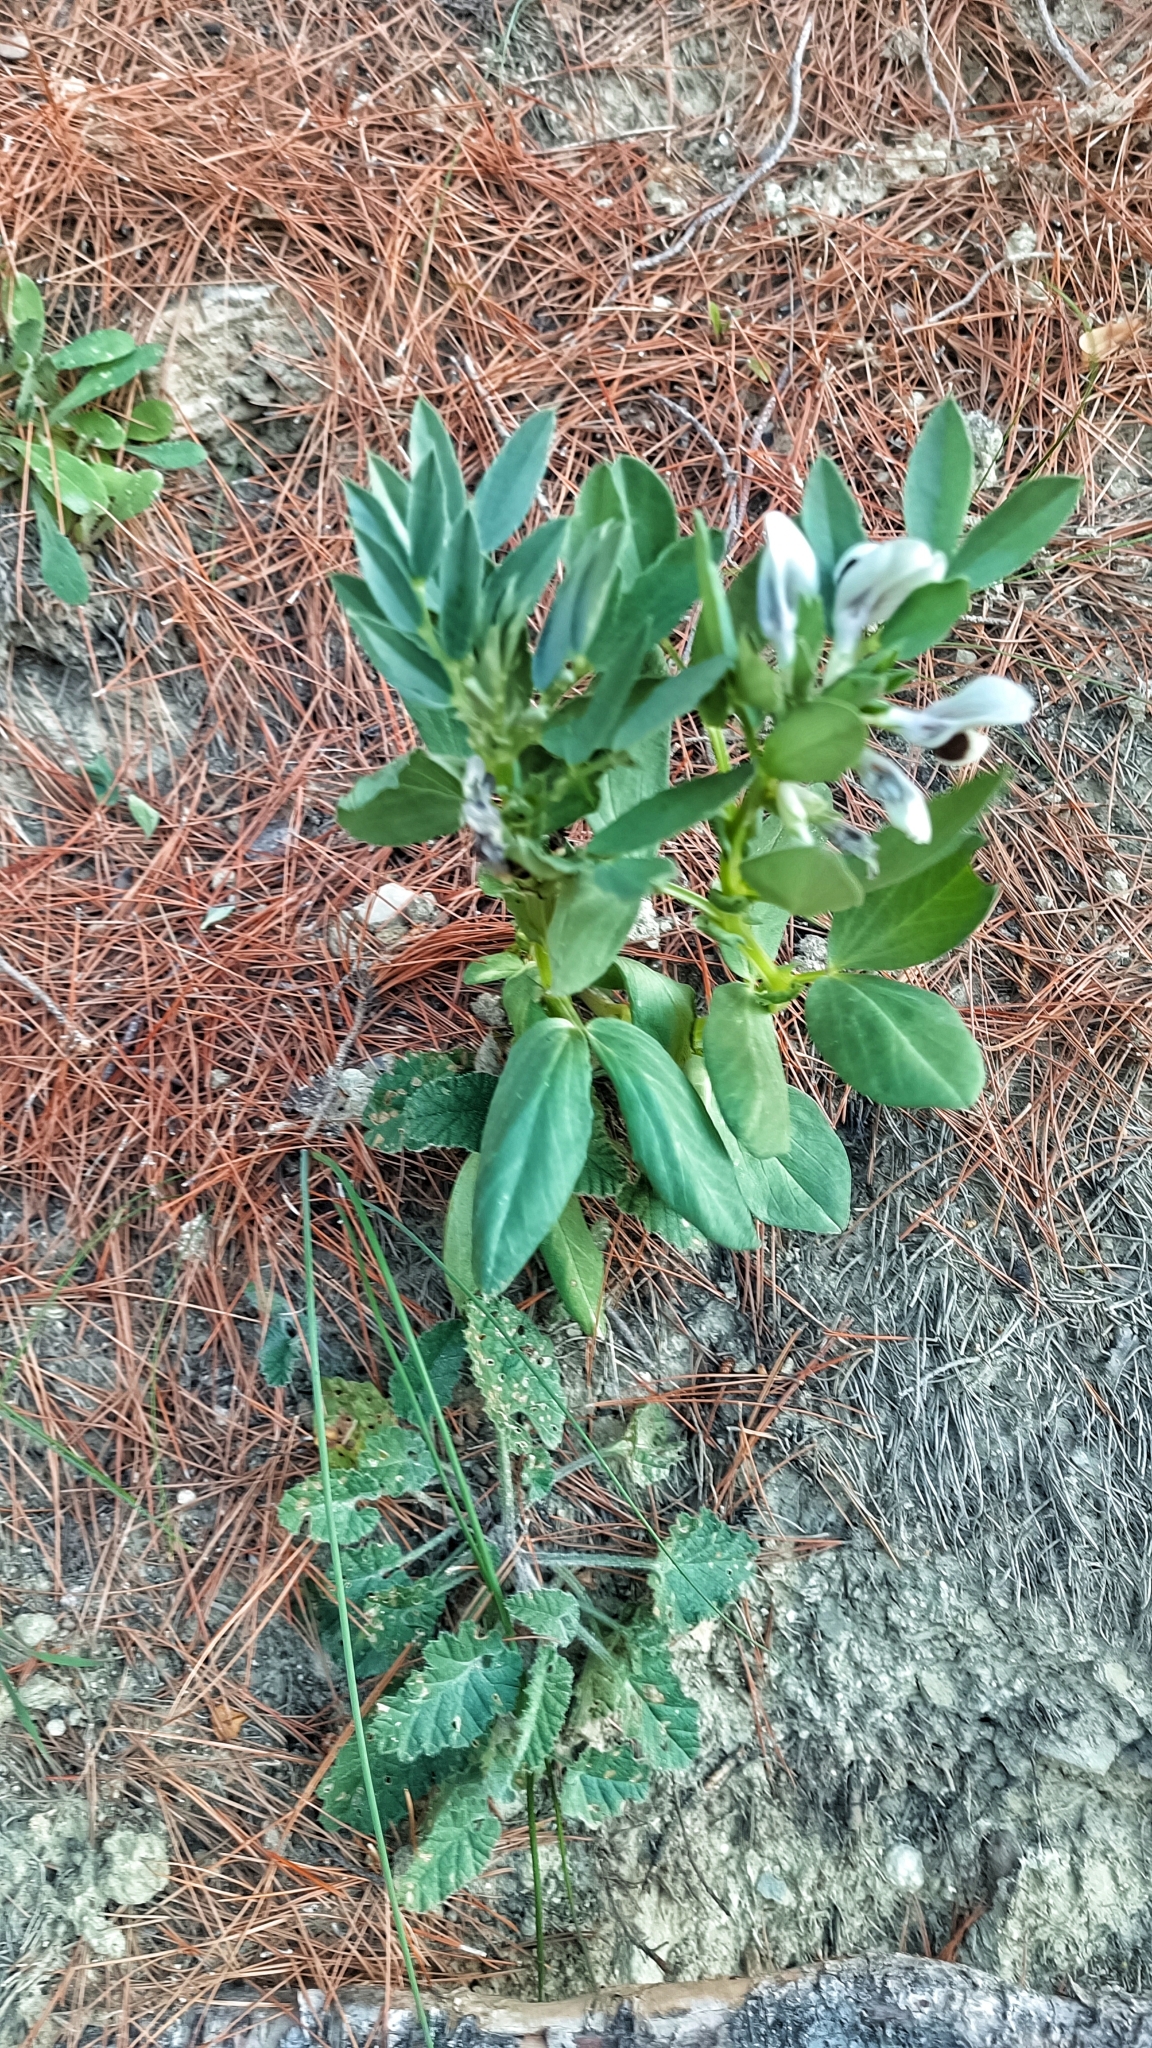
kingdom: Plantae
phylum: Tracheophyta
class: Magnoliopsida
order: Fabales
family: Fabaceae
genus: Vicia
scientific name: Vicia faba
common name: Broad bean
